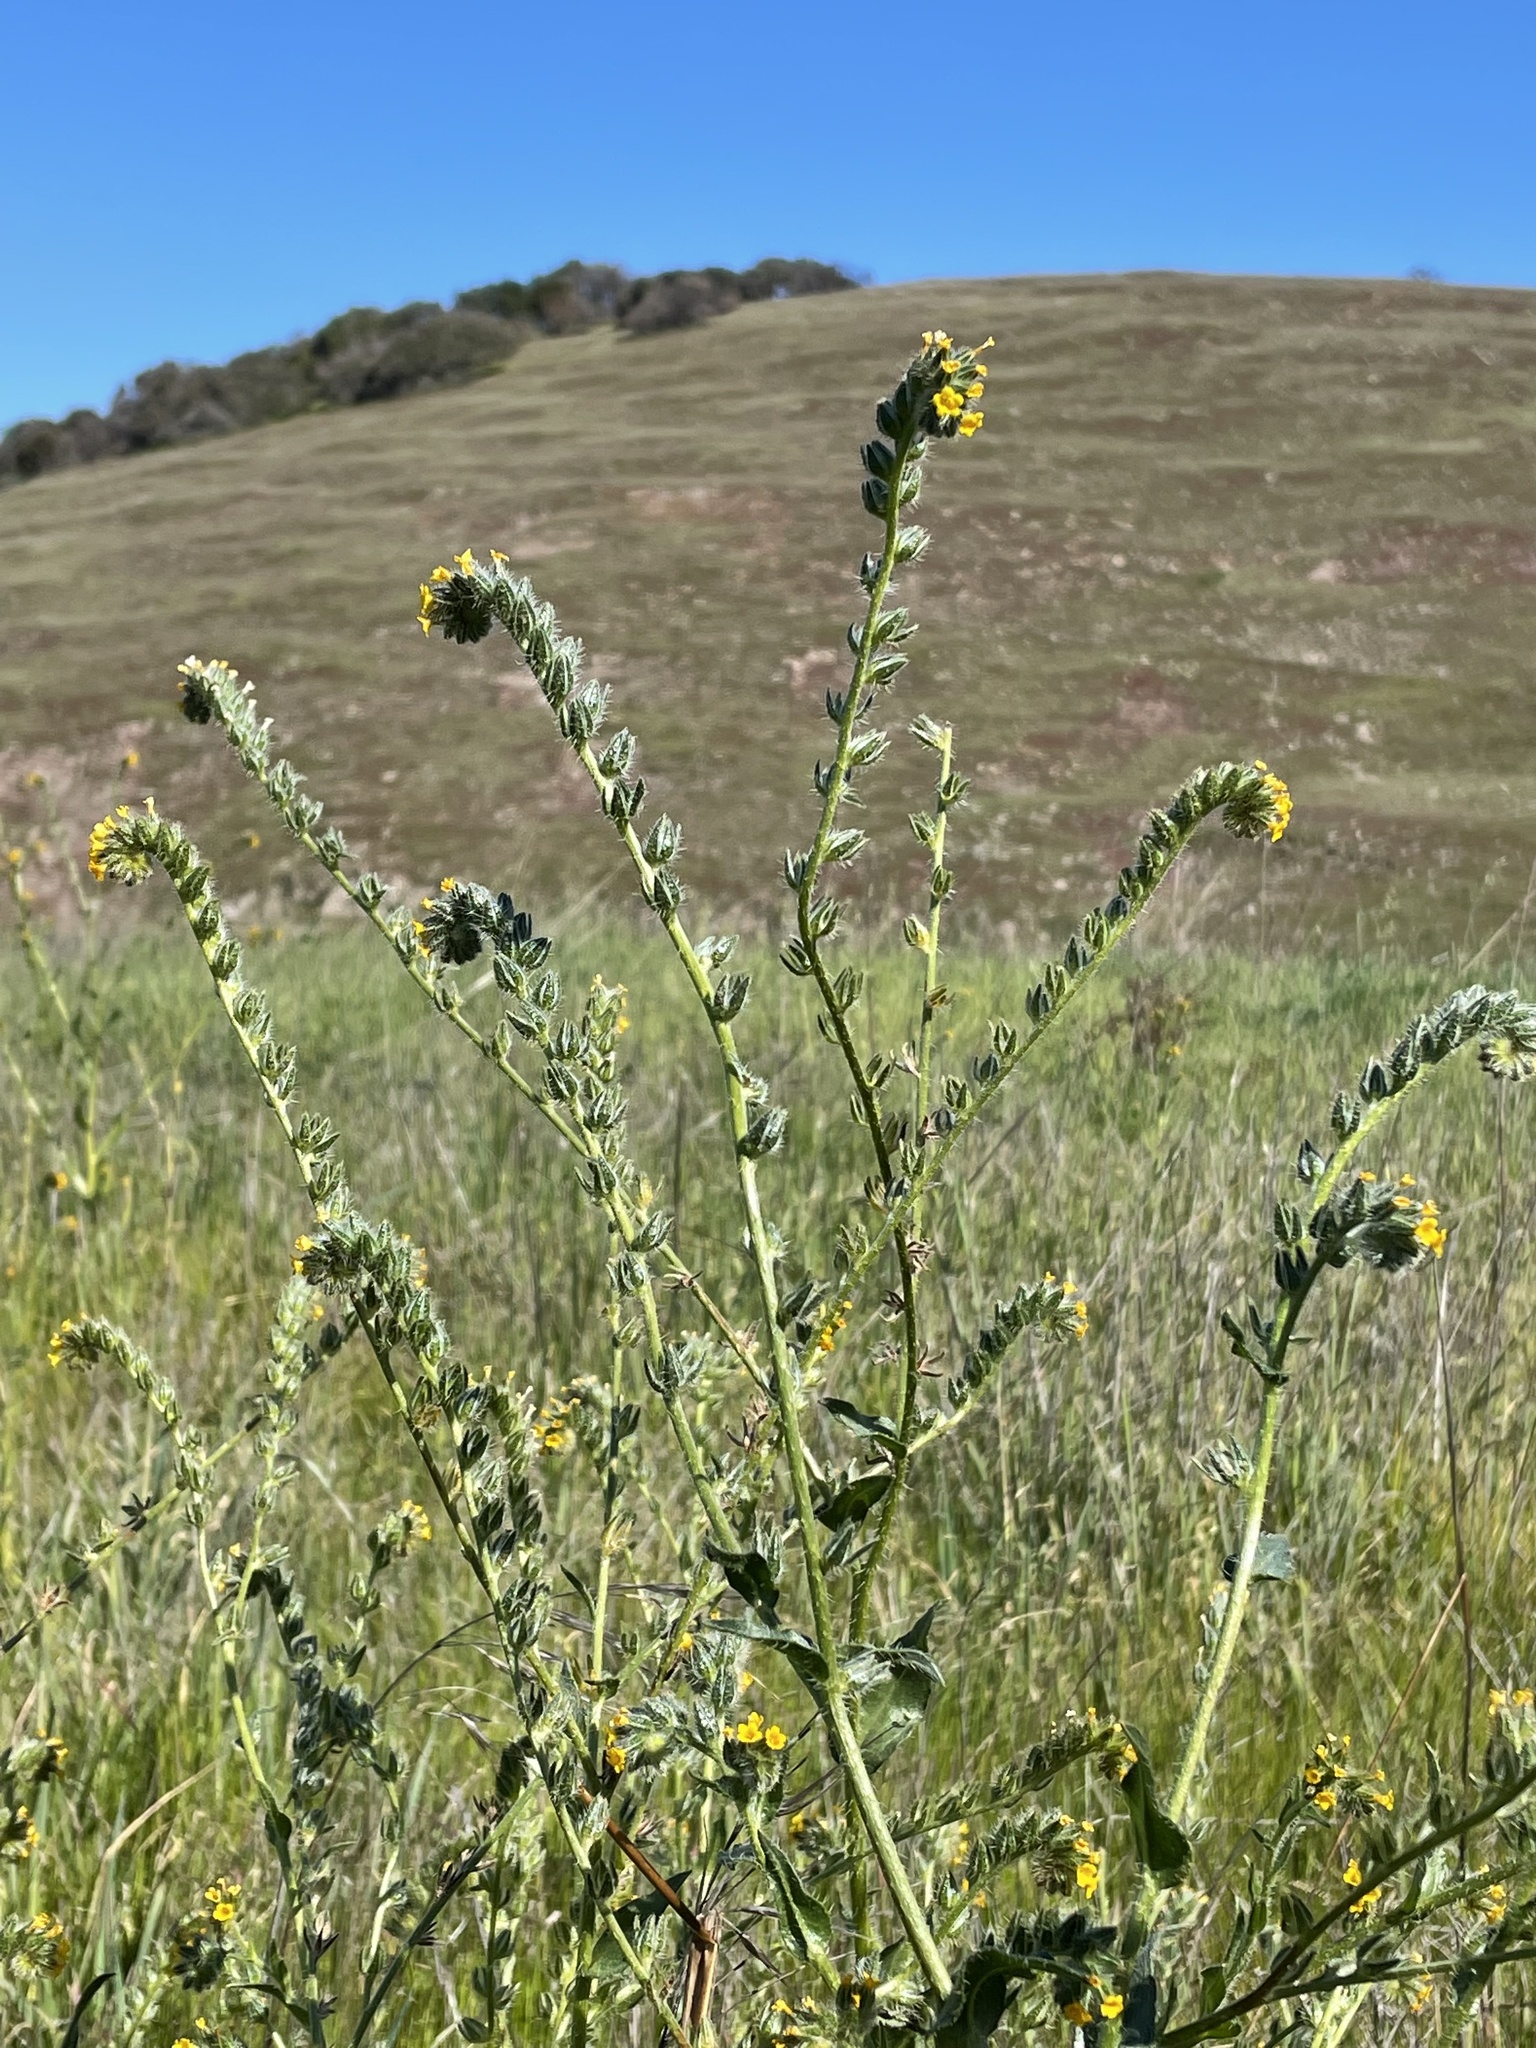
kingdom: Plantae
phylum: Tracheophyta
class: Magnoliopsida
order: Boraginales
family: Boraginaceae
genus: Amsinckia
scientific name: Amsinckia menziesii
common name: Menzies' fiddleneck
